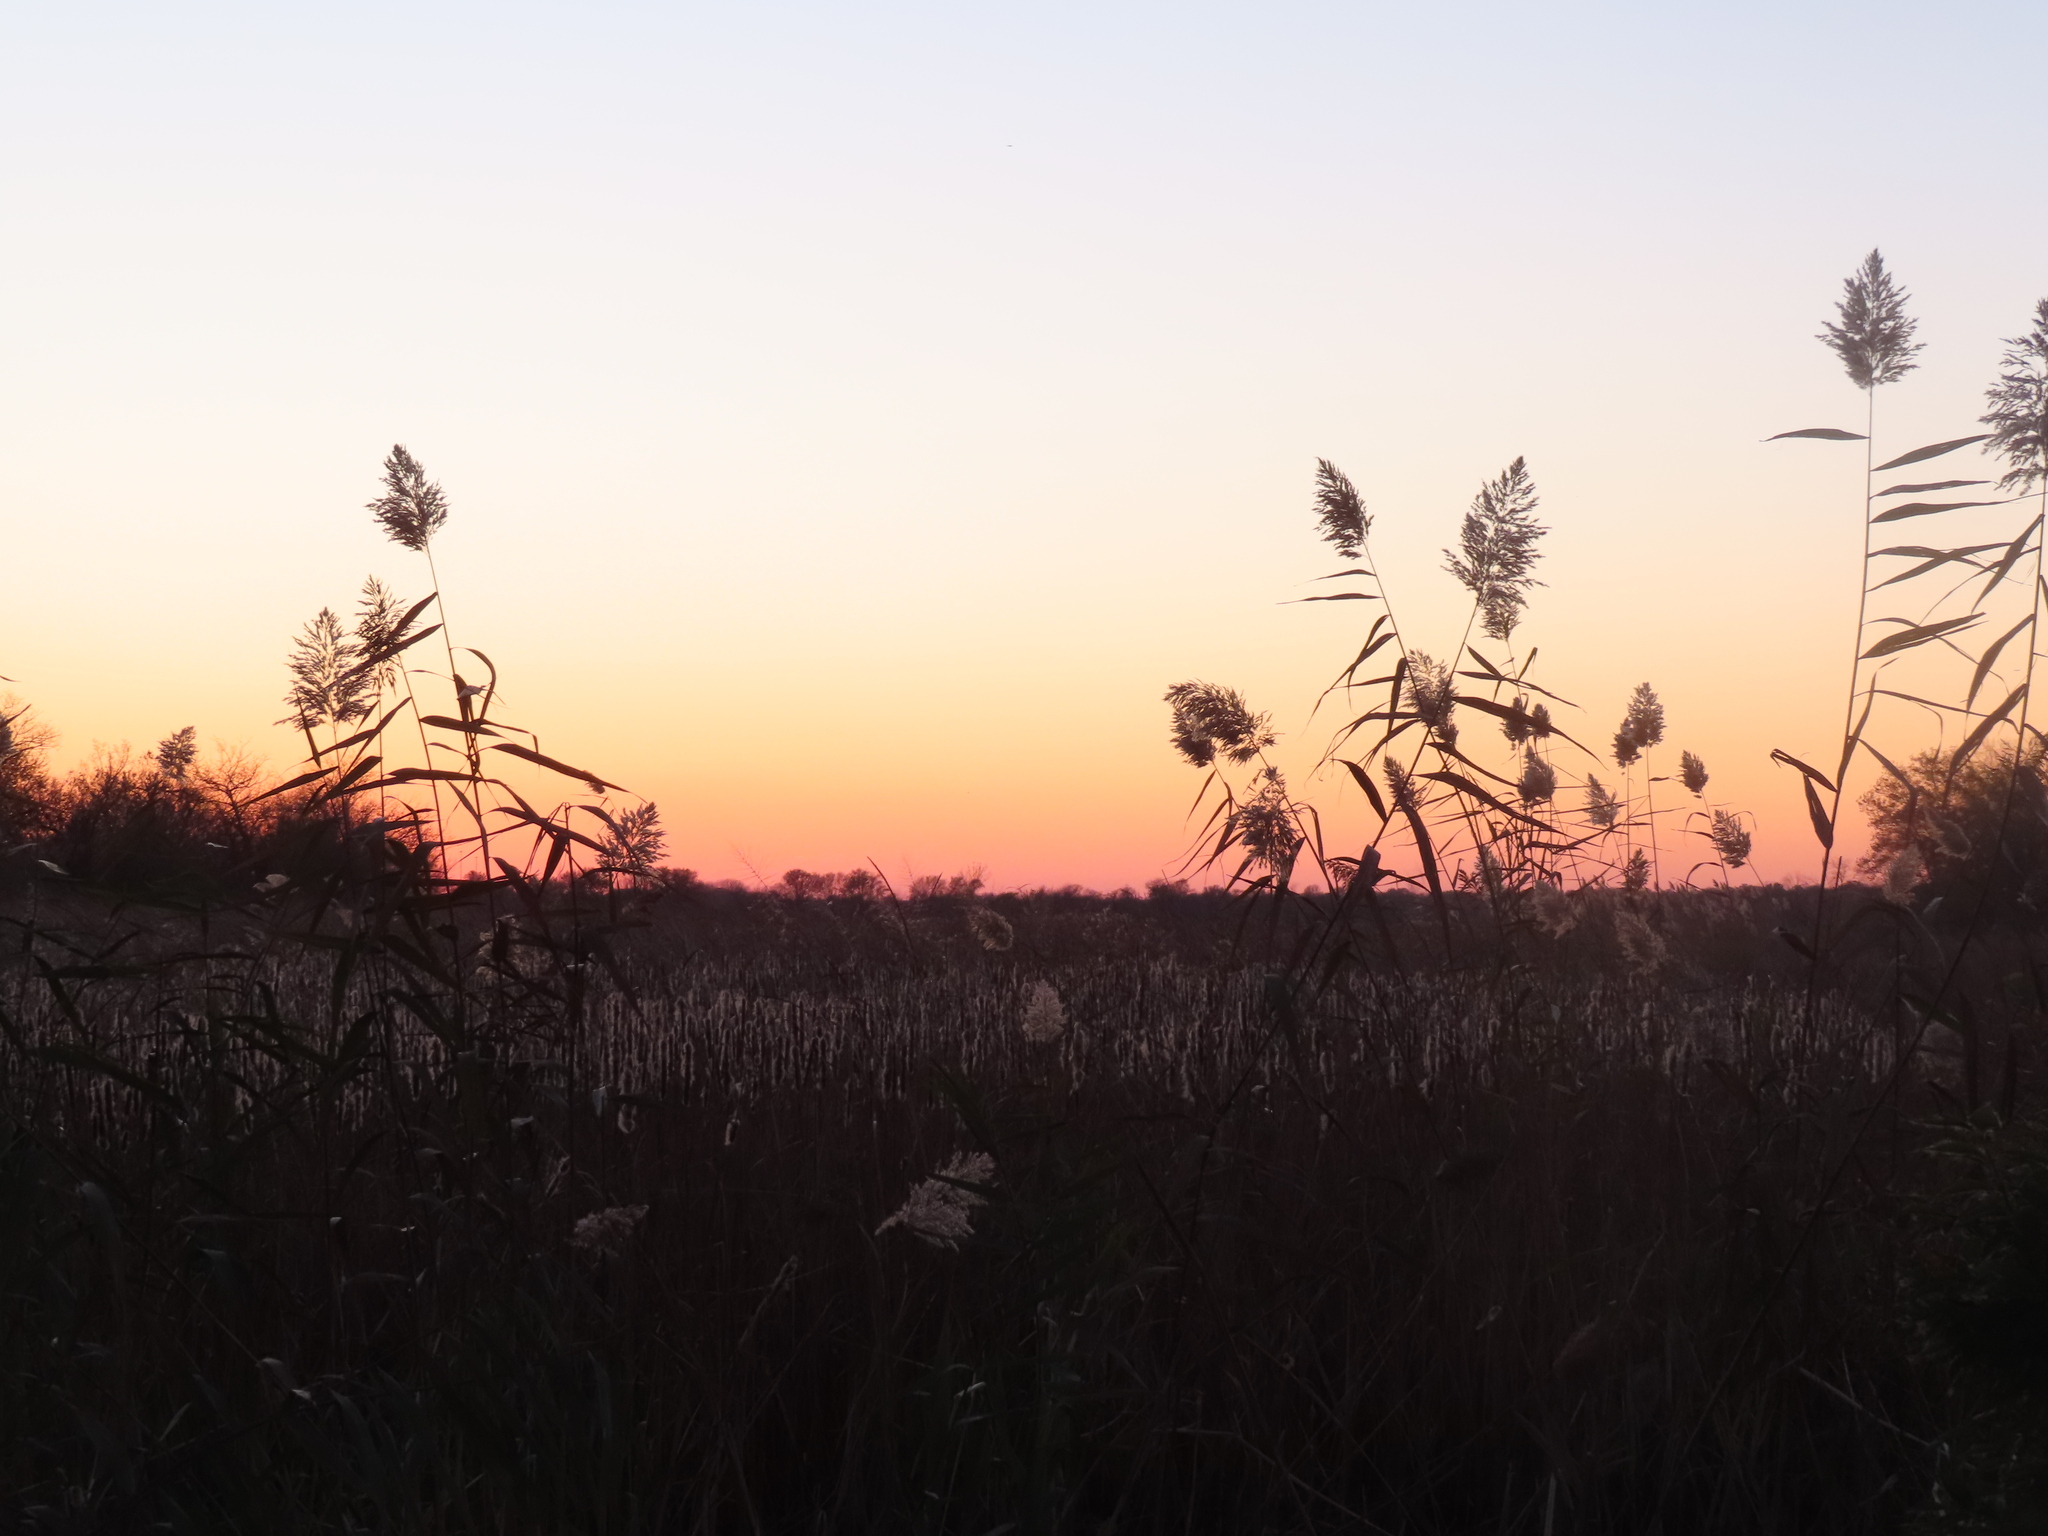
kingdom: Plantae
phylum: Tracheophyta
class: Liliopsida
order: Poales
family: Poaceae
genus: Phragmites
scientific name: Phragmites australis
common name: Common reed
